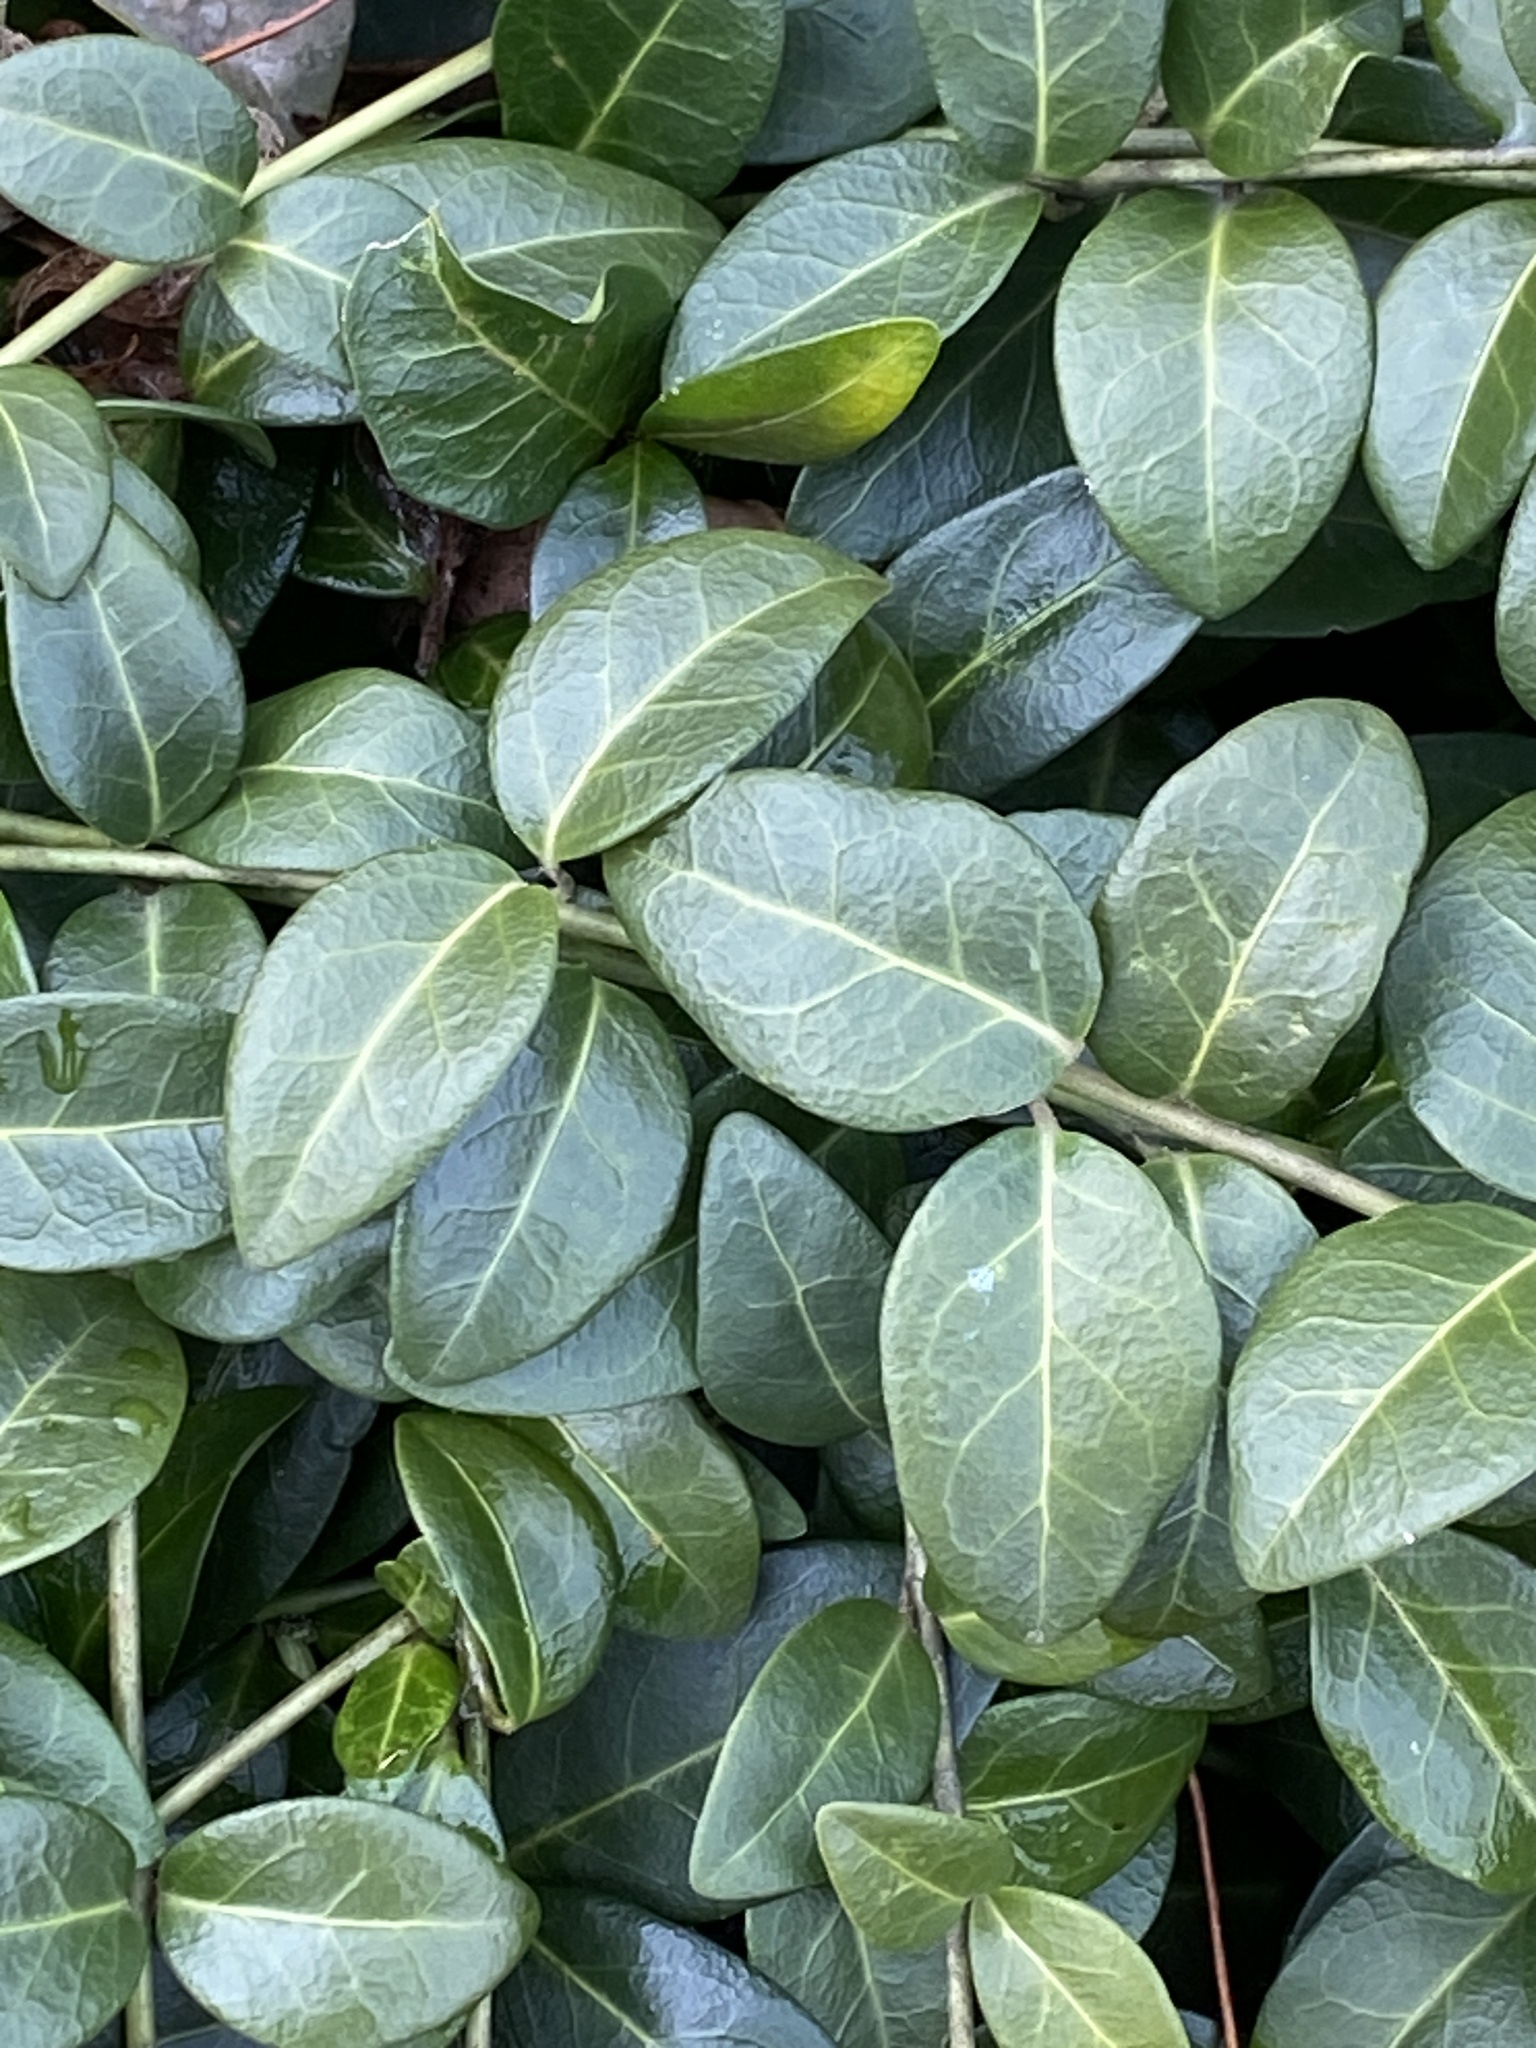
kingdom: Plantae
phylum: Tracheophyta
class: Magnoliopsida
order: Gentianales
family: Apocynaceae
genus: Vinca
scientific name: Vinca minor
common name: Lesser periwinkle
